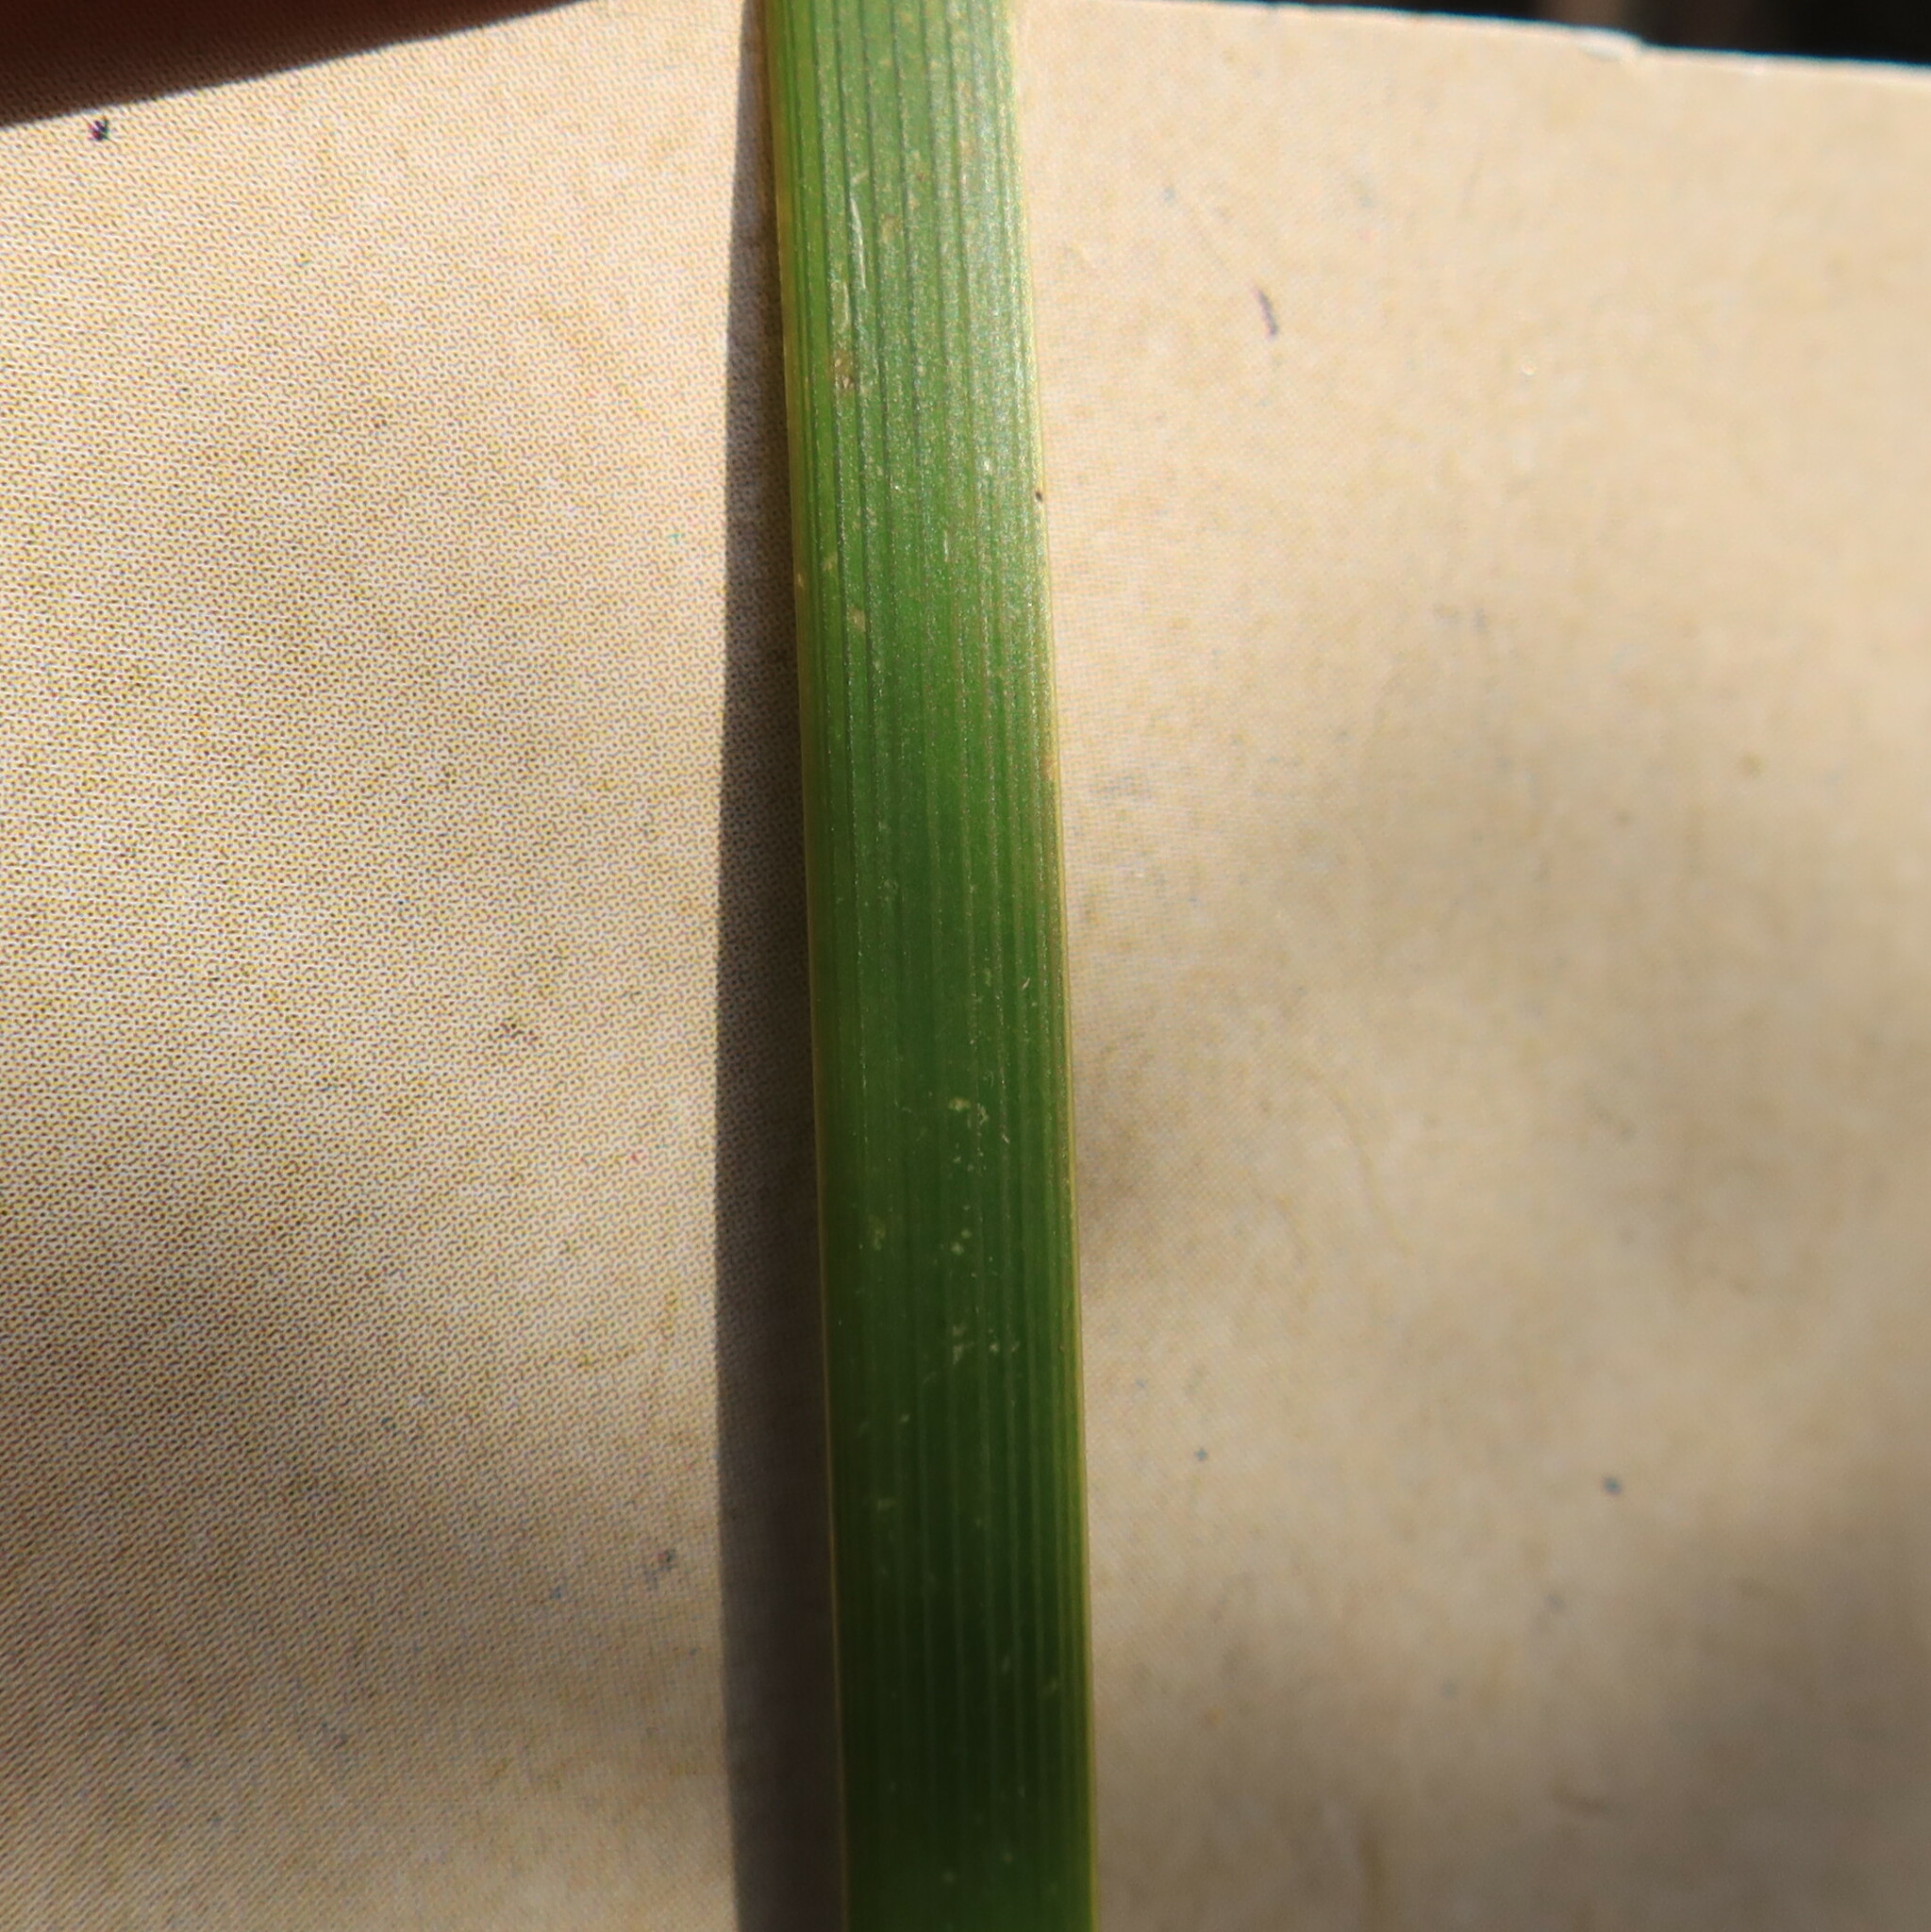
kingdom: Plantae
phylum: Tracheophyta
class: Liliopsida
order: Asparagales
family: Iridaceae
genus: Bobartia
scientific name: Bobartia gladiata
